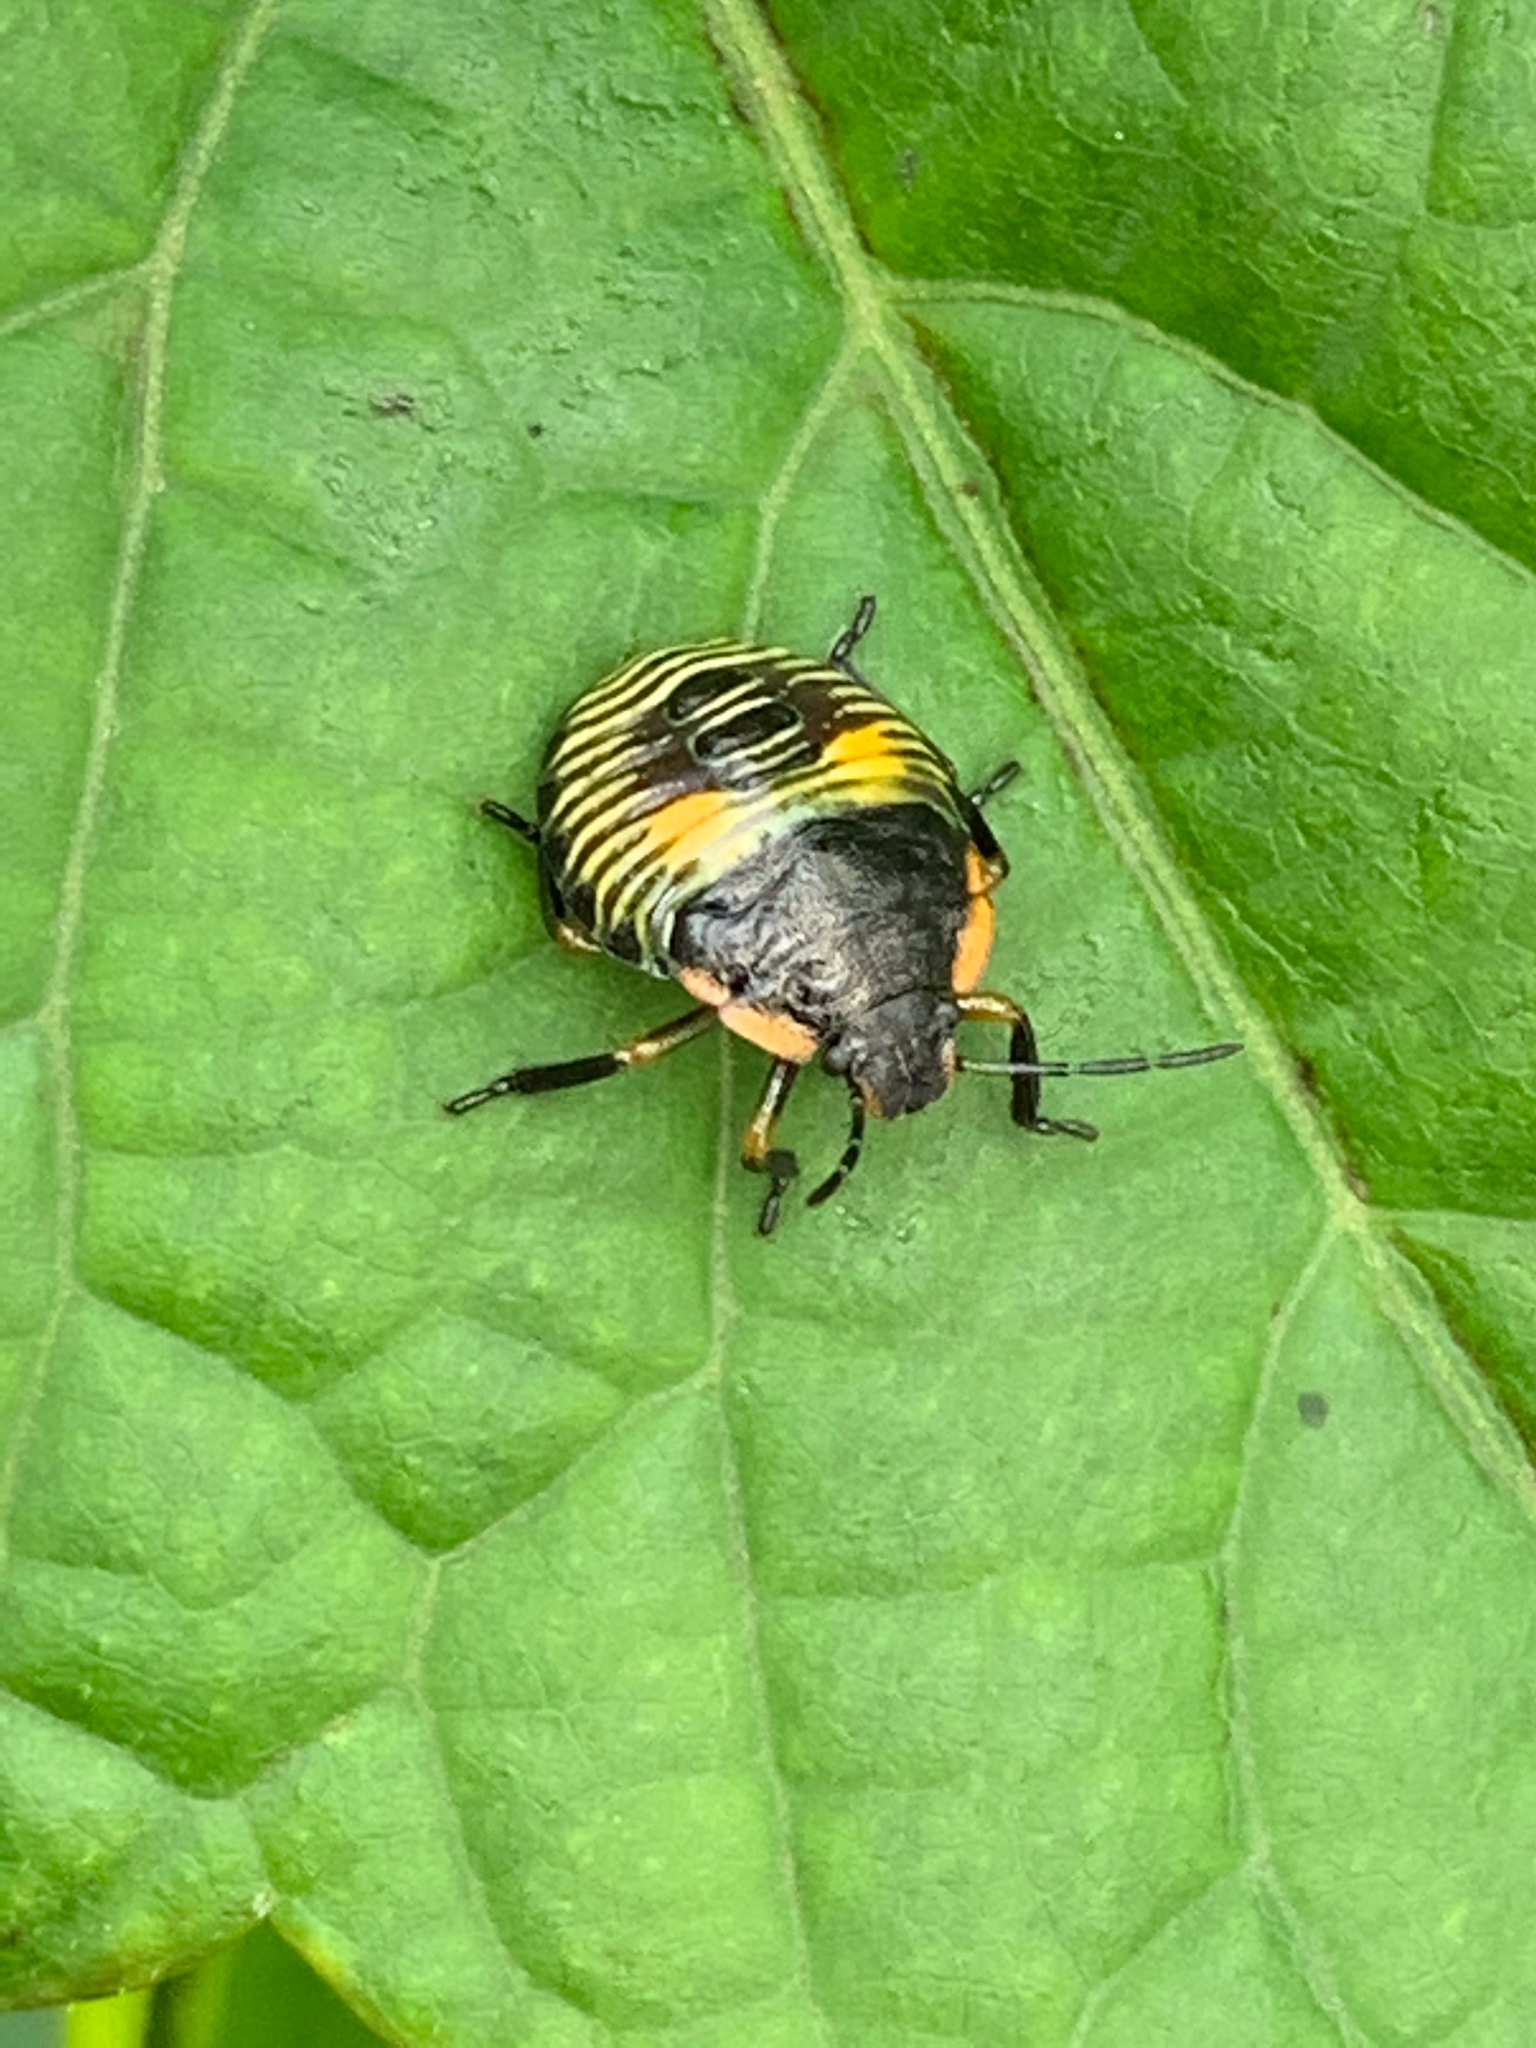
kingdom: Animalia
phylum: Arthropoda
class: Insecta
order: Hemiptera
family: Pentatomidae
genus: Chinavia
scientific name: Chinavia hilaris
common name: Green stink bug
